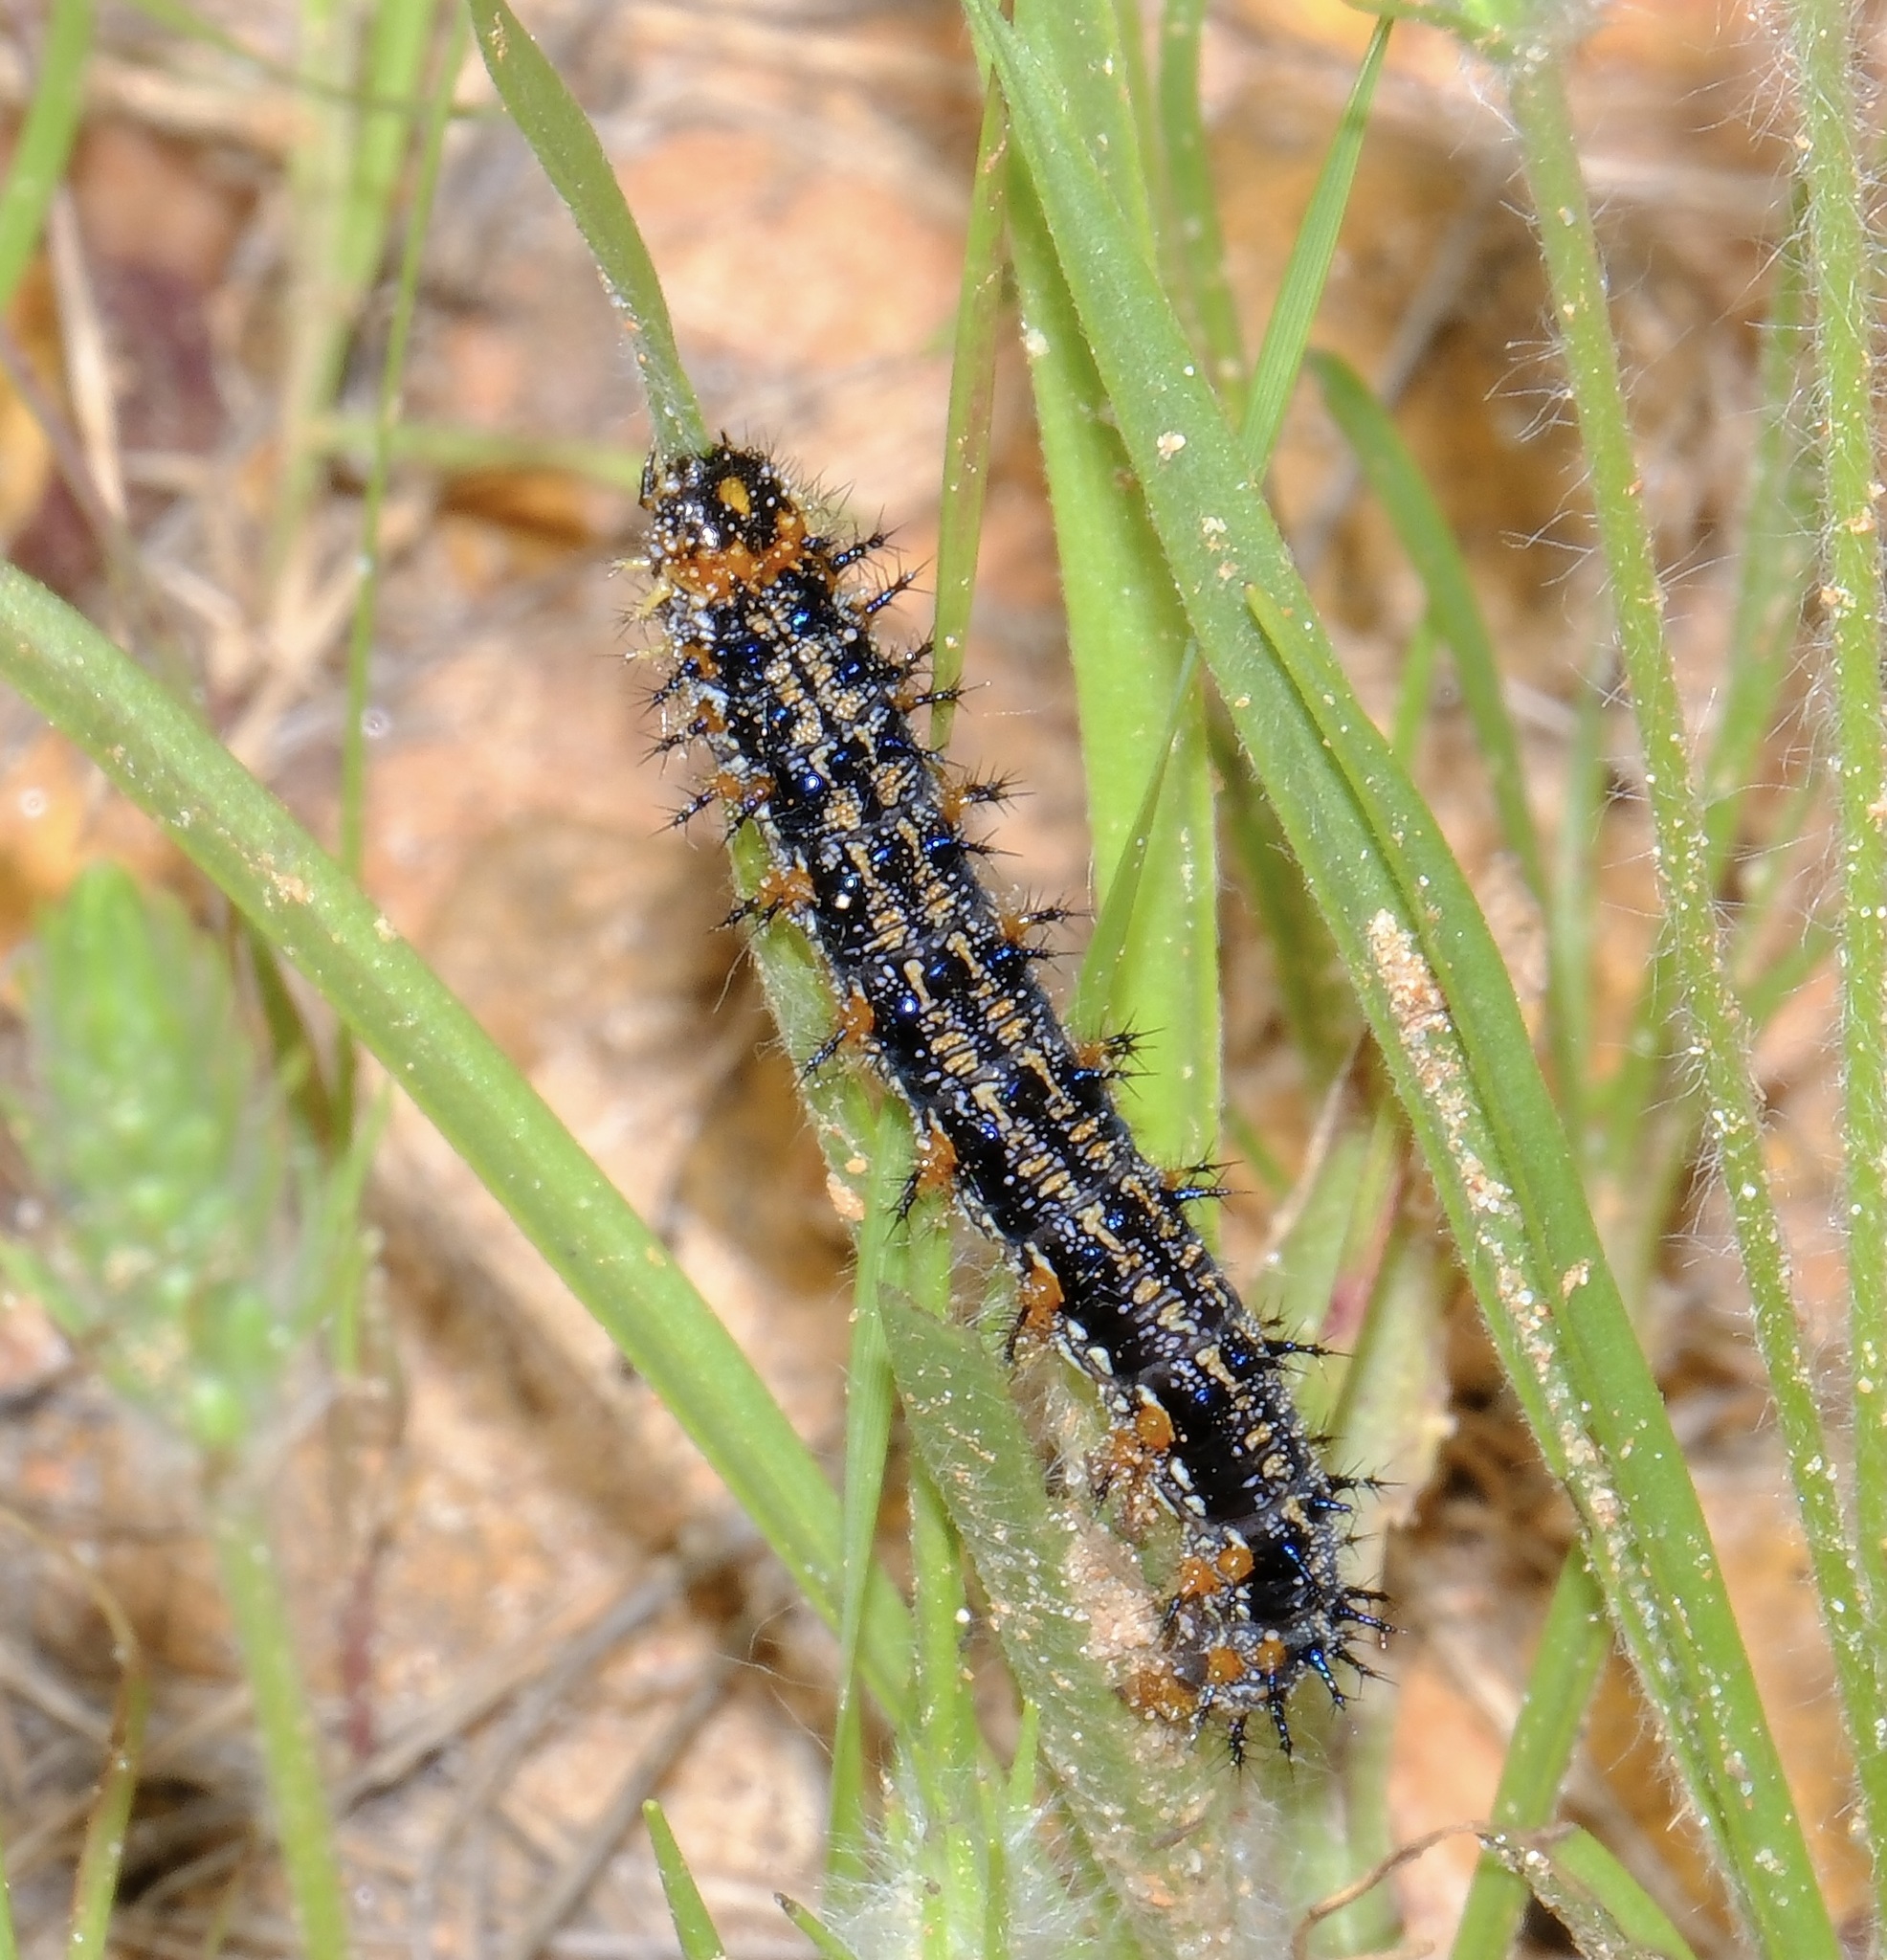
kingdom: Animalia
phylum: Arthropoda
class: Insecta
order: Lepidoptera
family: Nymphalidae
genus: Junonia
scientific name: Junonia coenia
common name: Common buckeye
